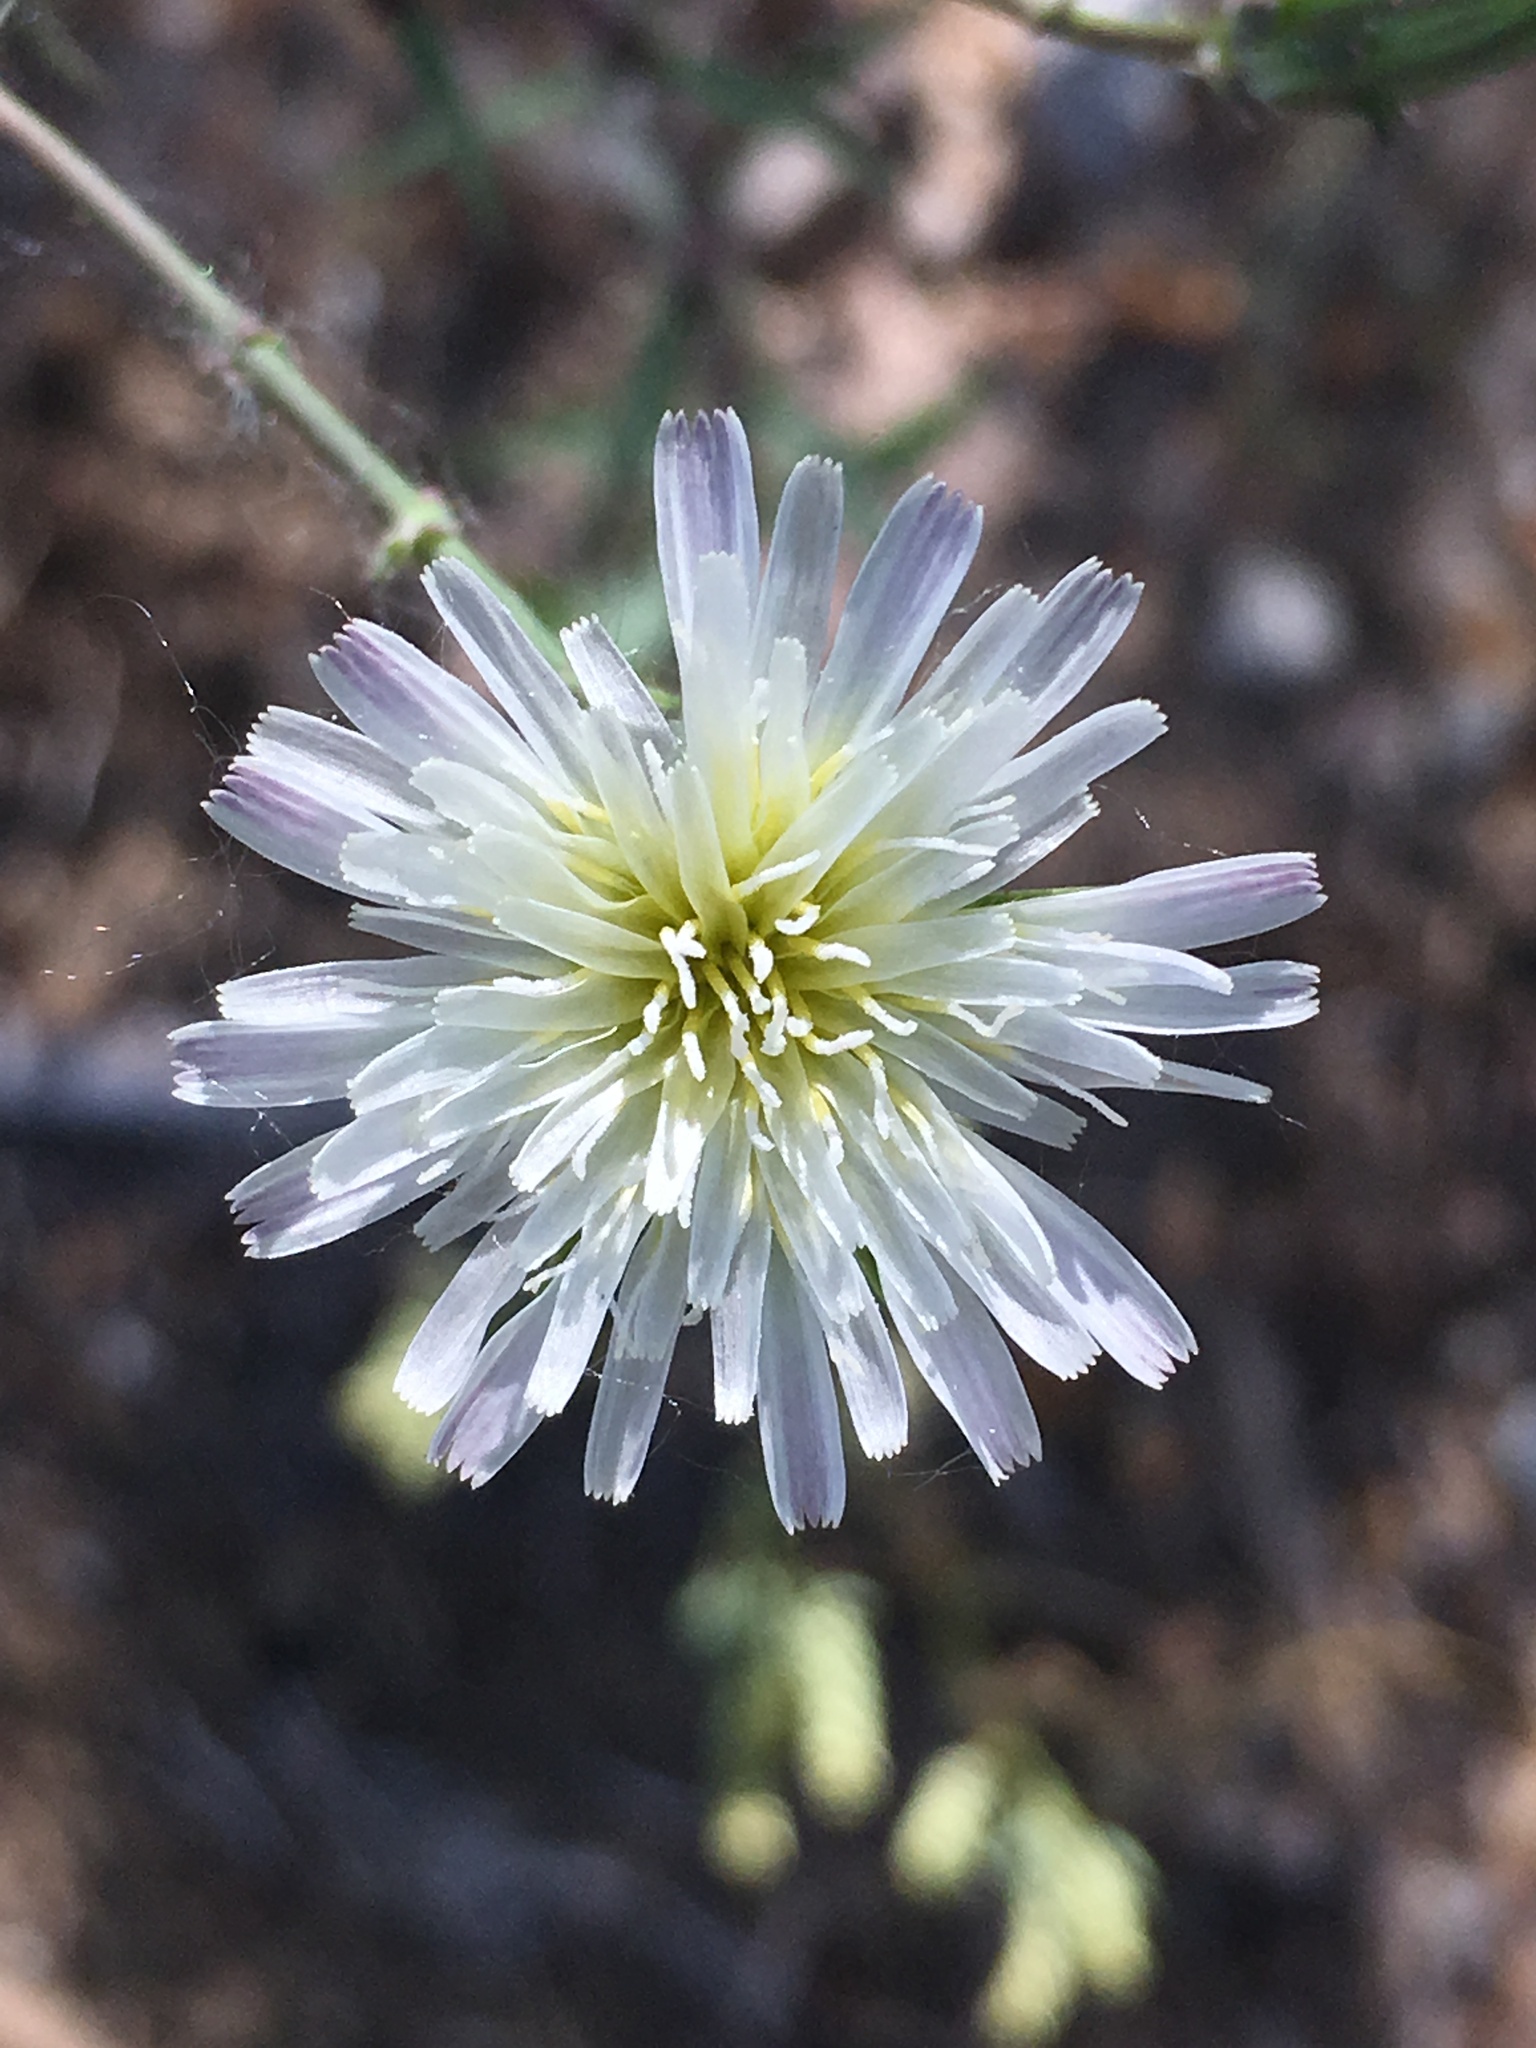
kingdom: Plantae
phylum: Tracheophyta
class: Magnoliopsida
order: Asterales
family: Asteraceae
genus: Rafinesquia
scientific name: Rafinesquia californica
